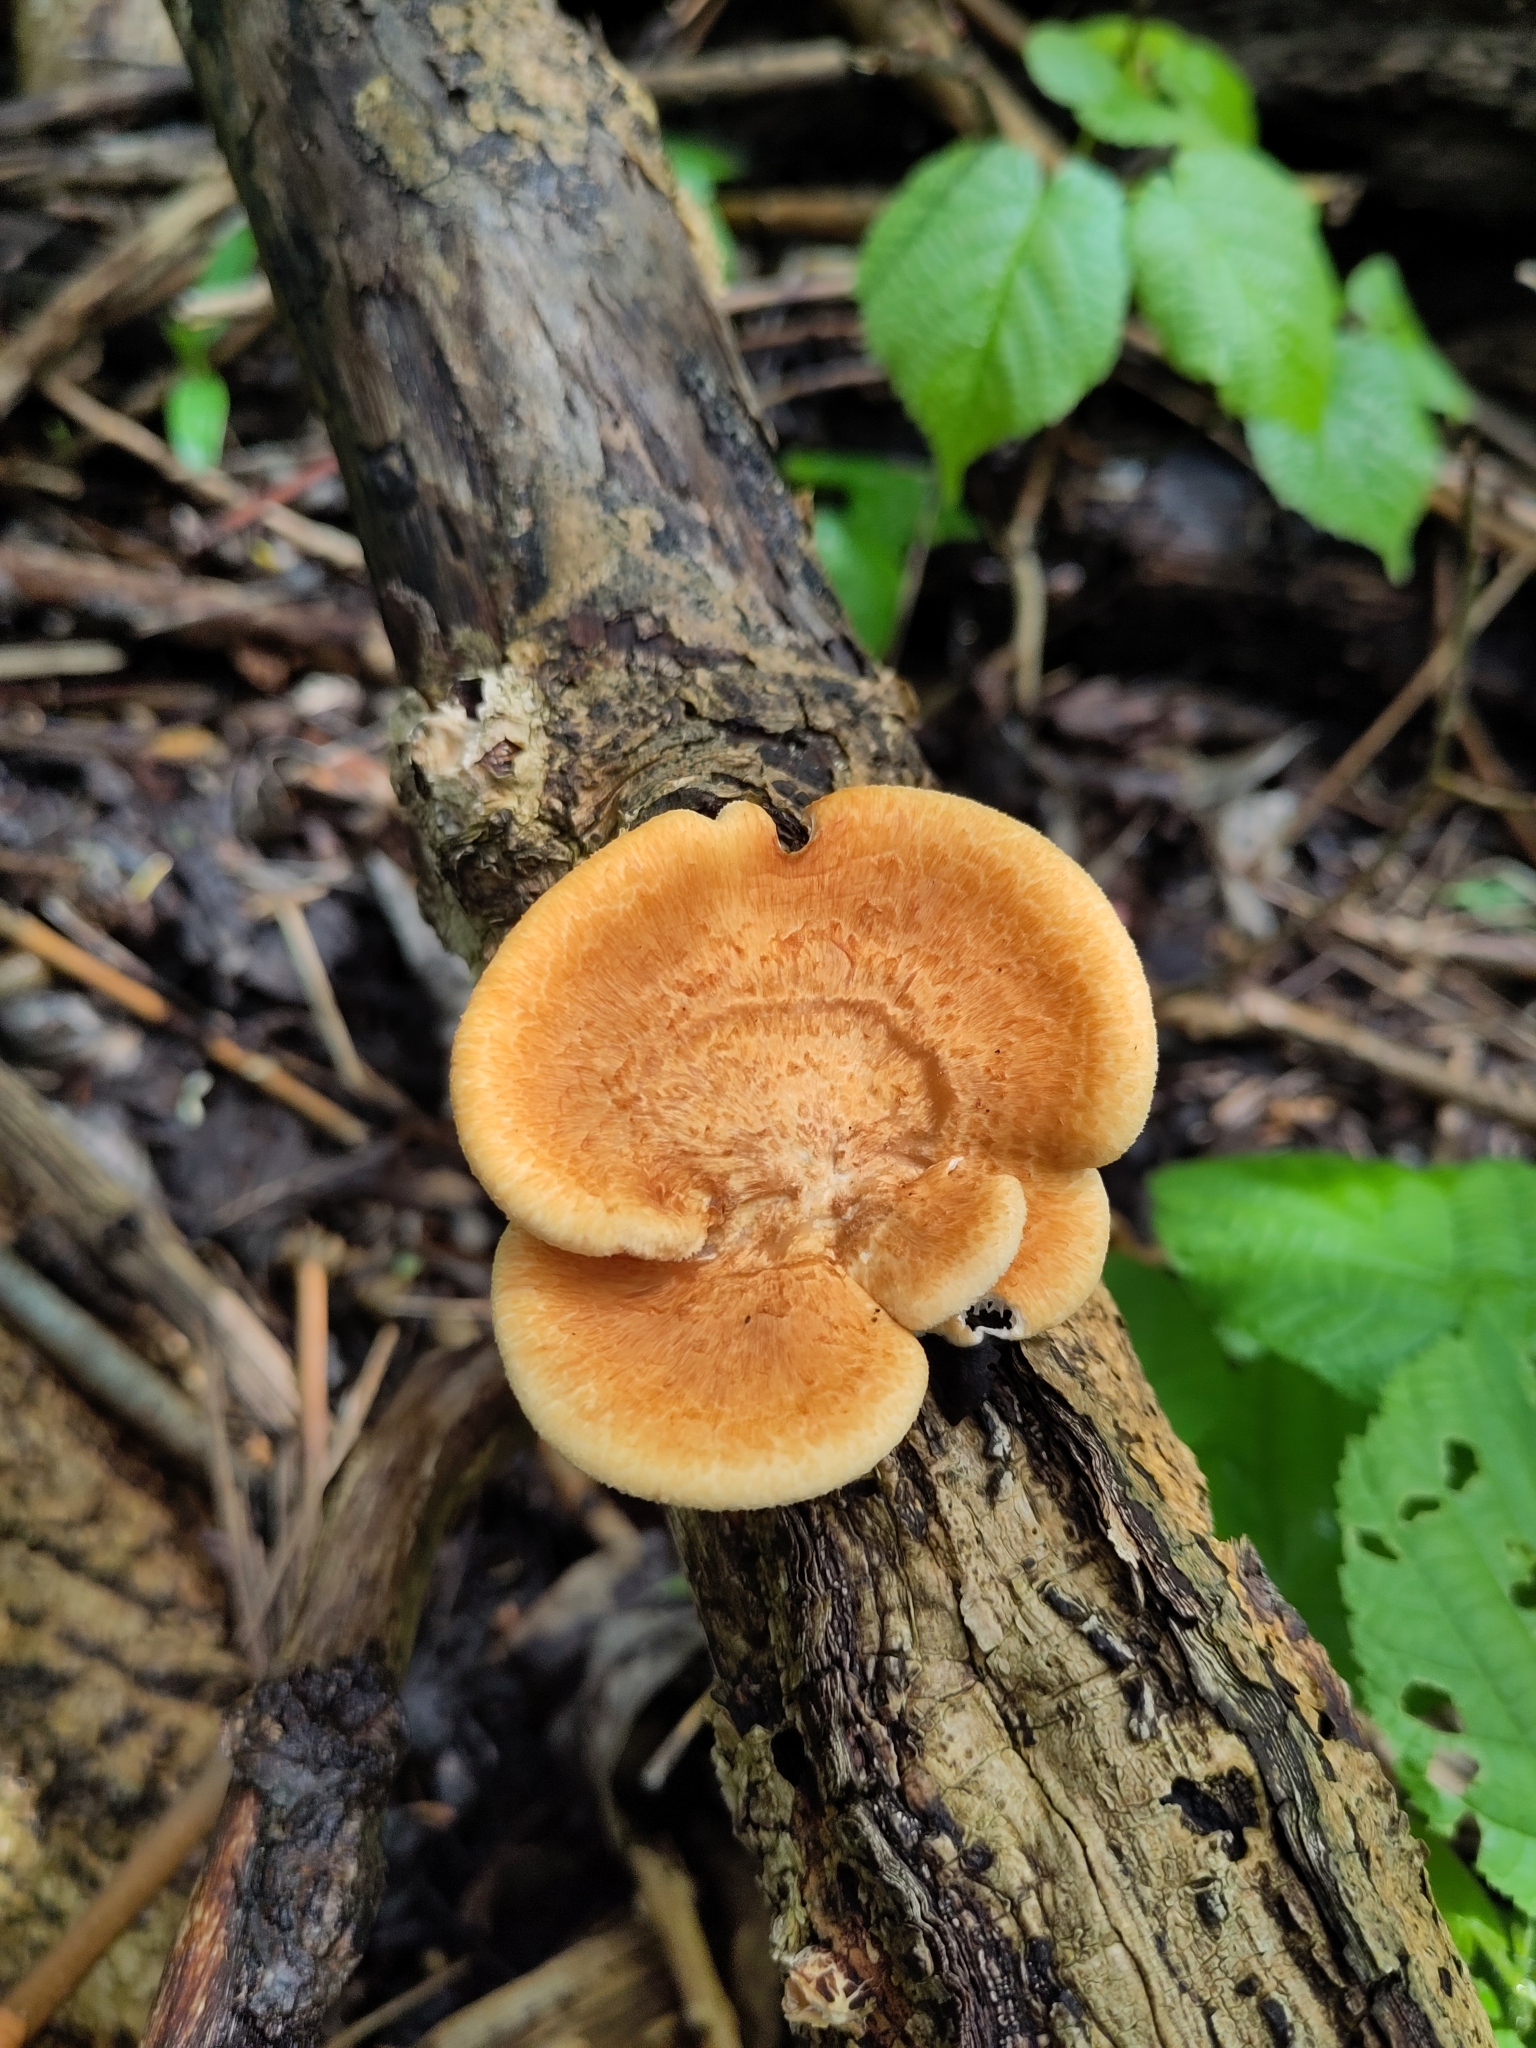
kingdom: Fungi
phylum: Basidiomycota
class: Agaricomycetes
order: Polyporales
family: Polyporaceae
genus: Neofavolus
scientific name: Neofavolus alveolaris
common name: Hexagonal-pored polypore
